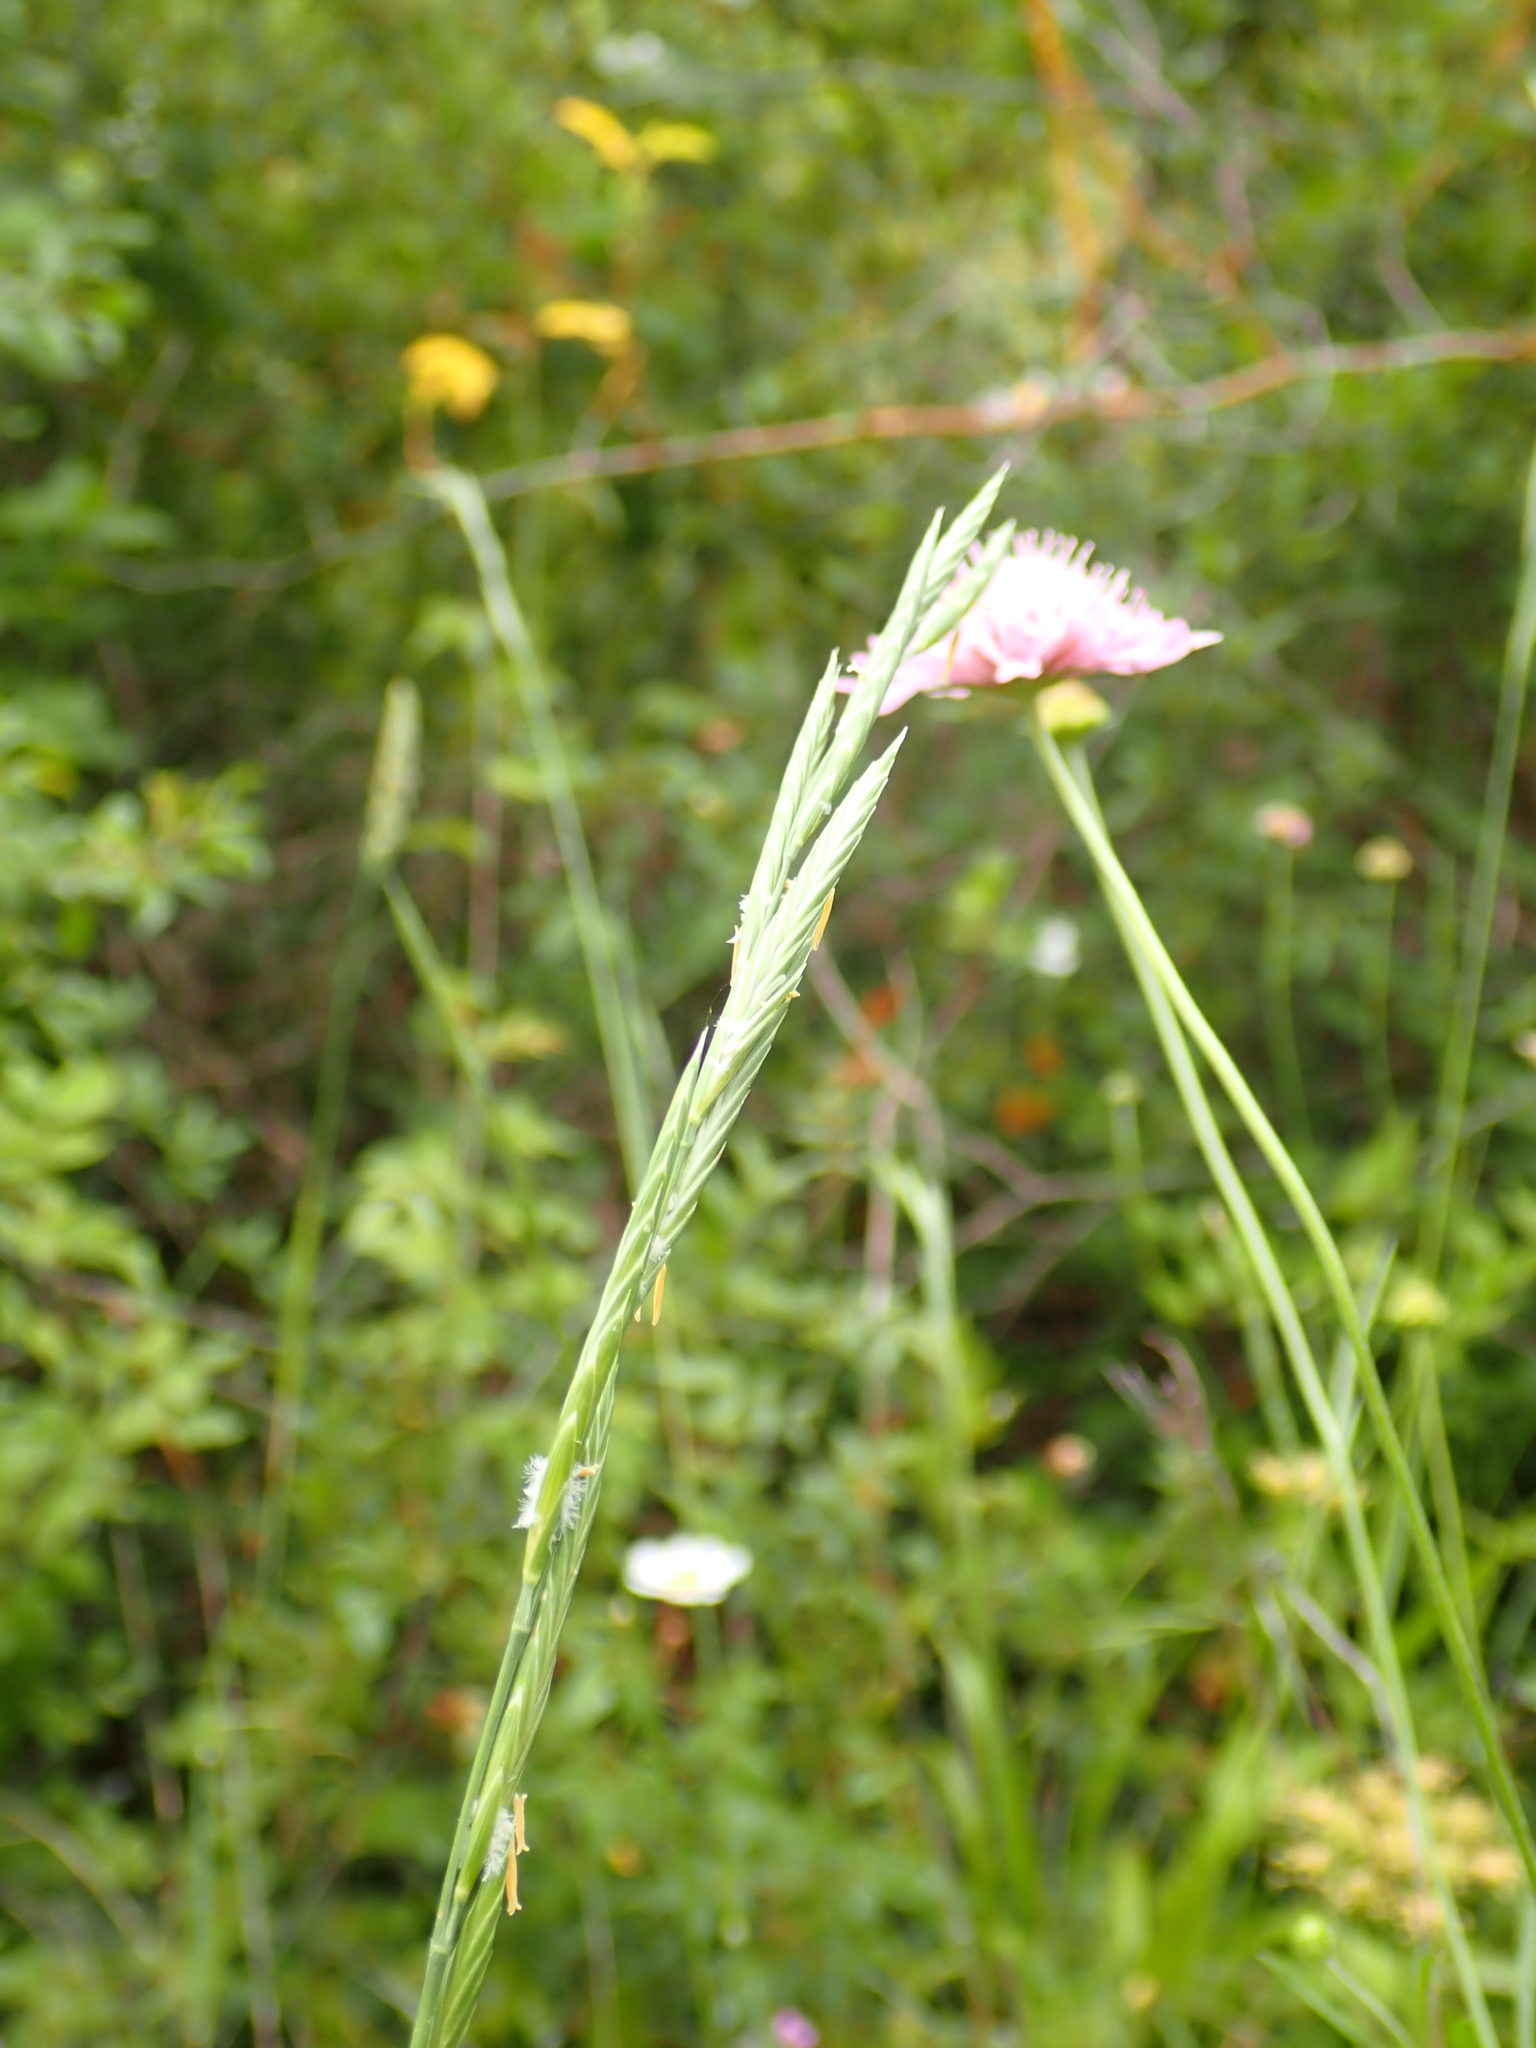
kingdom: Plantae
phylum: Tracheophyta
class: Liliopsida
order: Poales
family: Poaceae
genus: Brachypodium
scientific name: Brachypodium phoenicoides
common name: Thinleaf false brome
